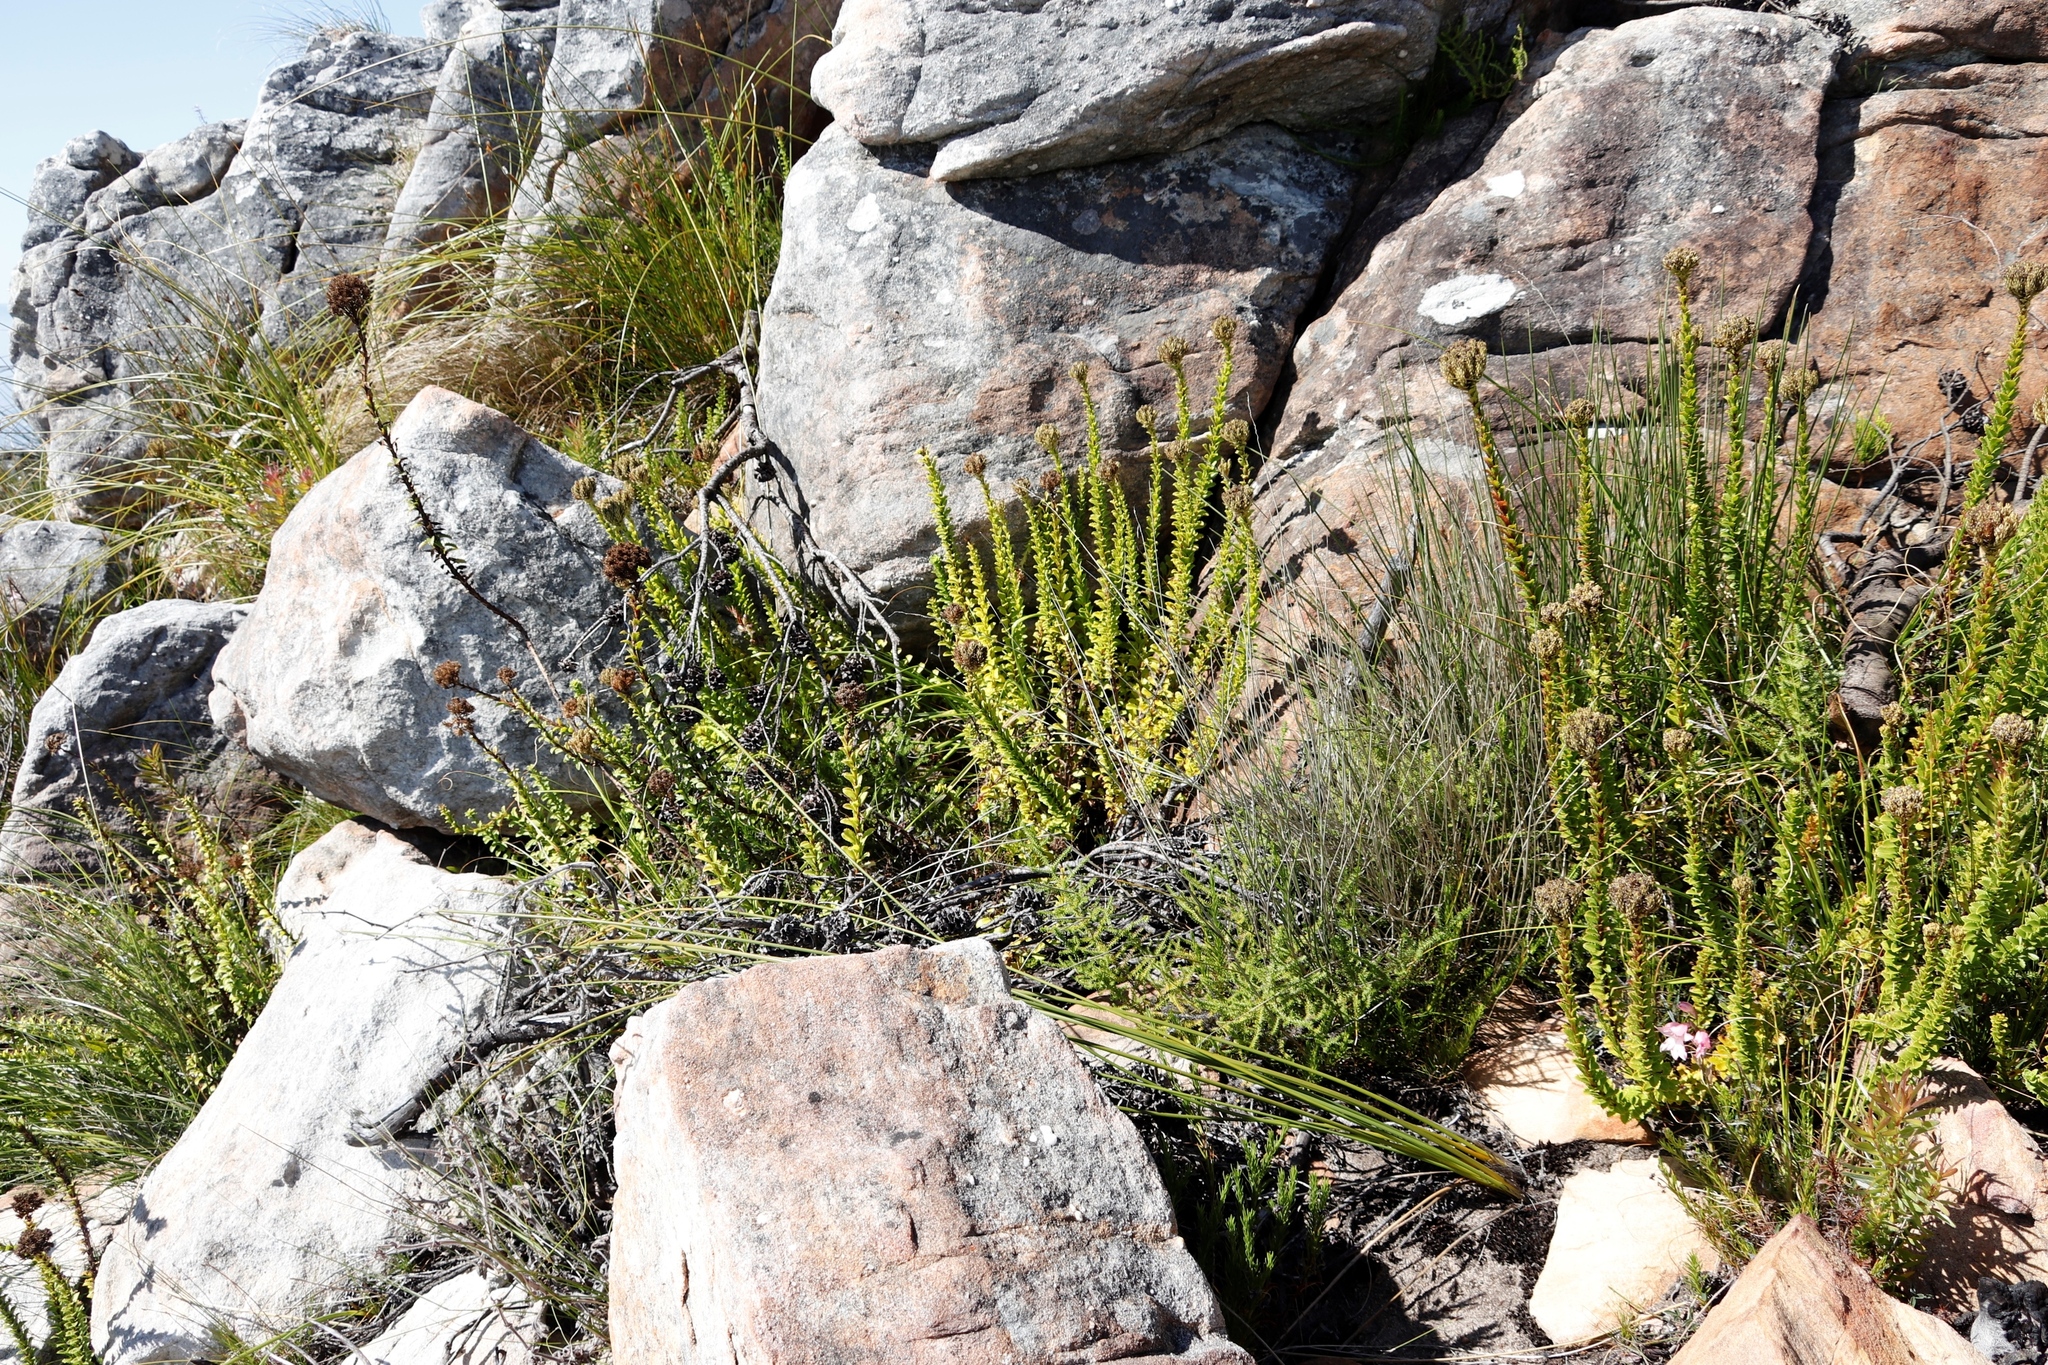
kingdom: Plantae
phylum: Tracheophyta
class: Magnoliopsida
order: Lamiales
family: Scrophulariaceae
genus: Pseudoselago
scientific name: Pseudoselago serrata
